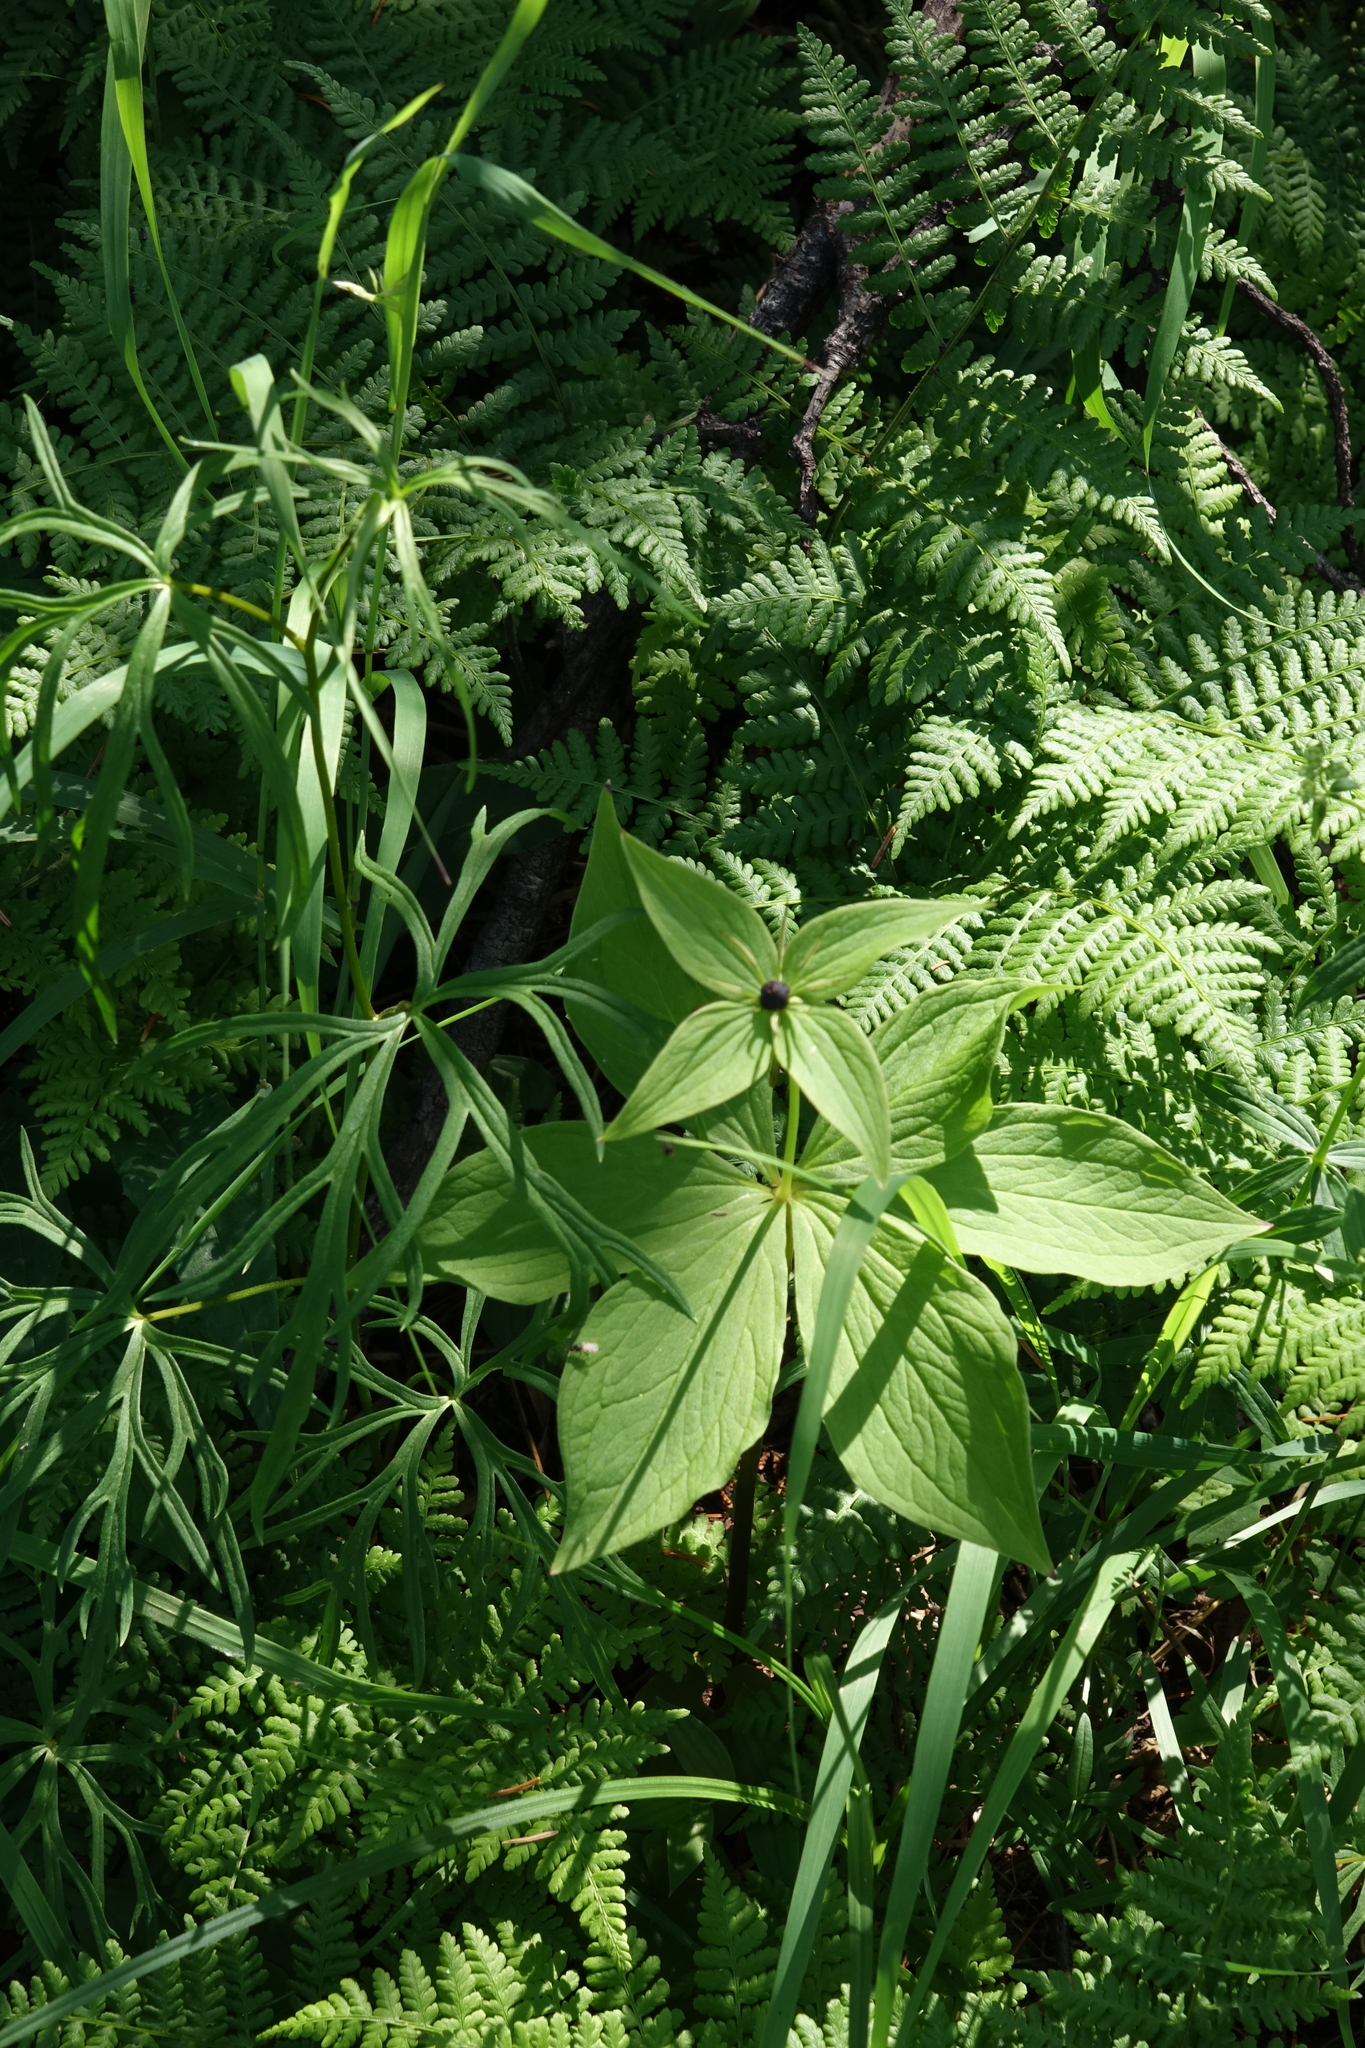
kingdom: Plantae
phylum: Tracheophyta
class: Liliopsida
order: Liliales
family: Melanthiaceae
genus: Paris
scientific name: Paris verticillata
